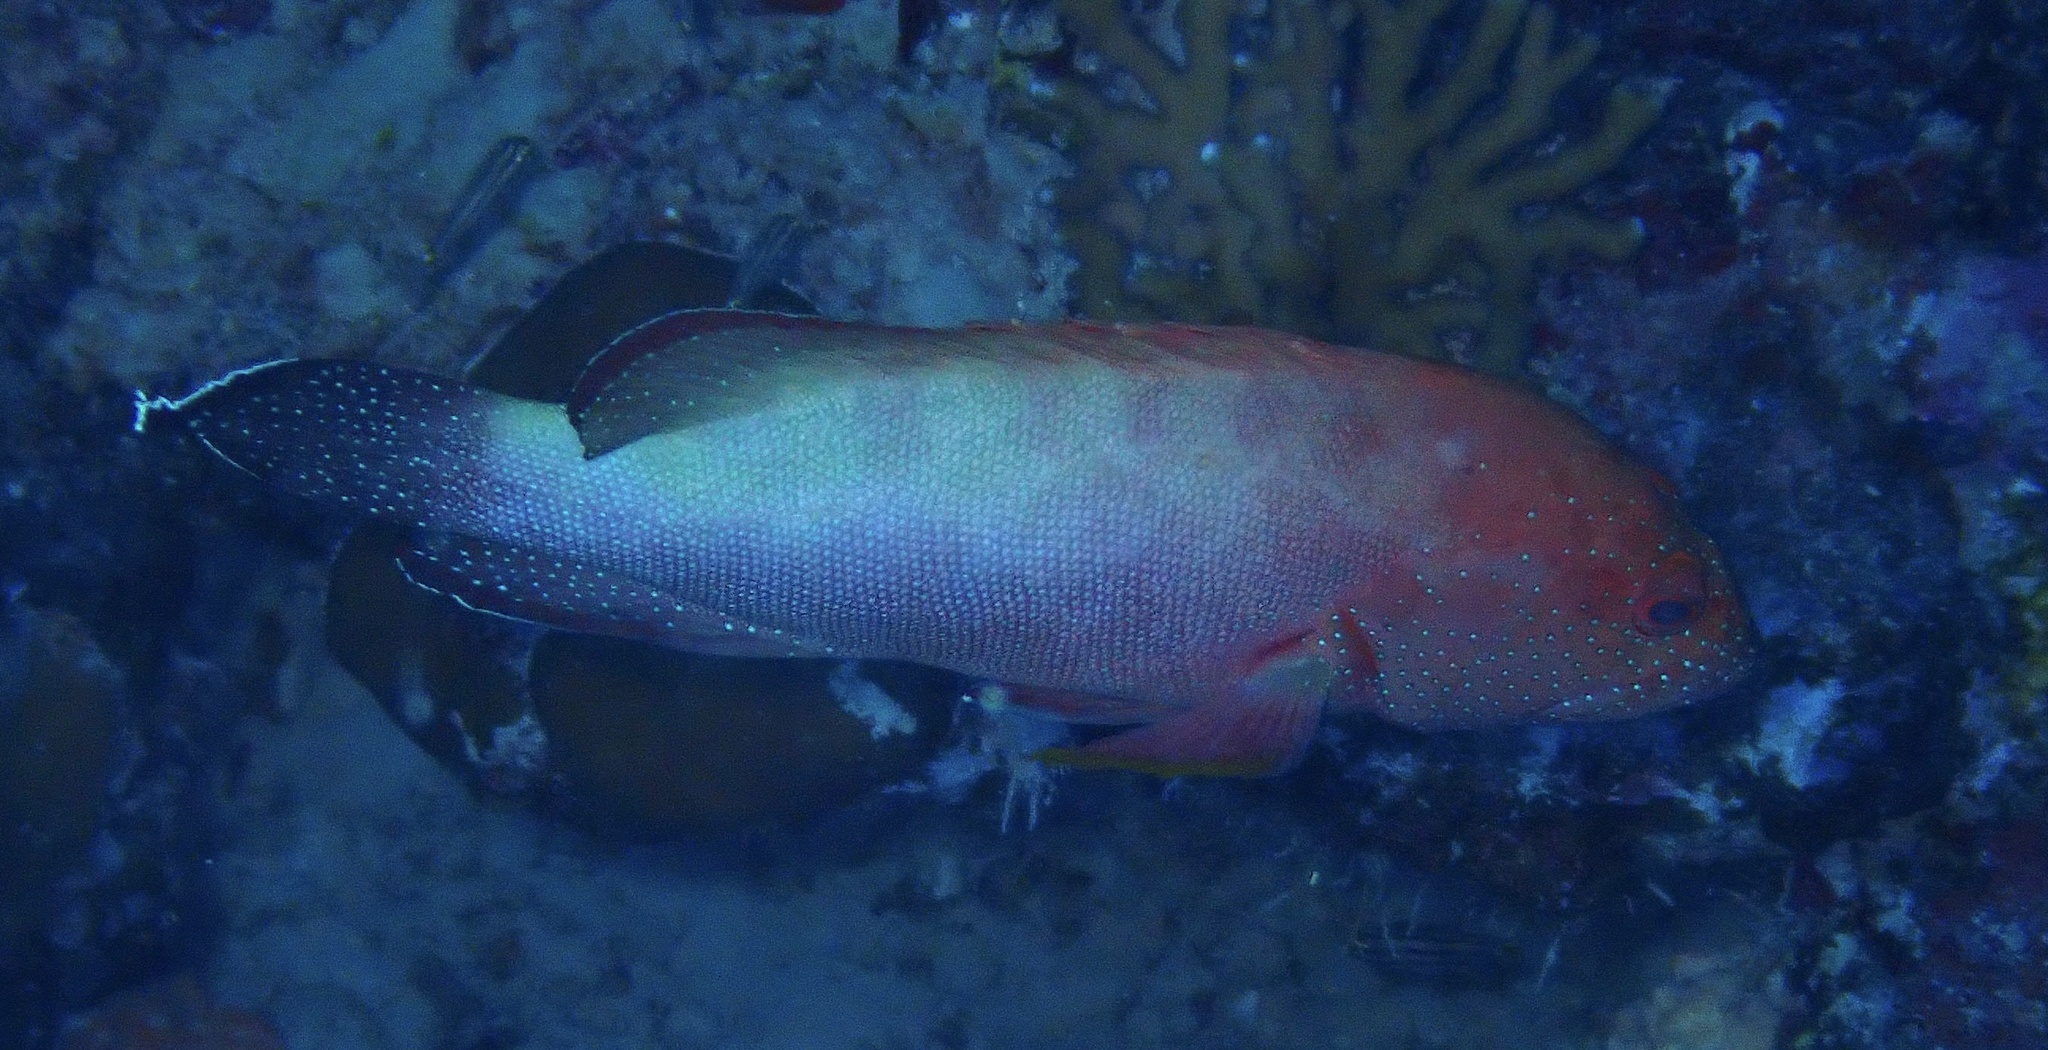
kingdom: Animalia
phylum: Chordata
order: Perciformes
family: Serranidae
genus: Cephalopholis
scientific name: Cephalopholis hemistiktos
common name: Halfspotted hind
